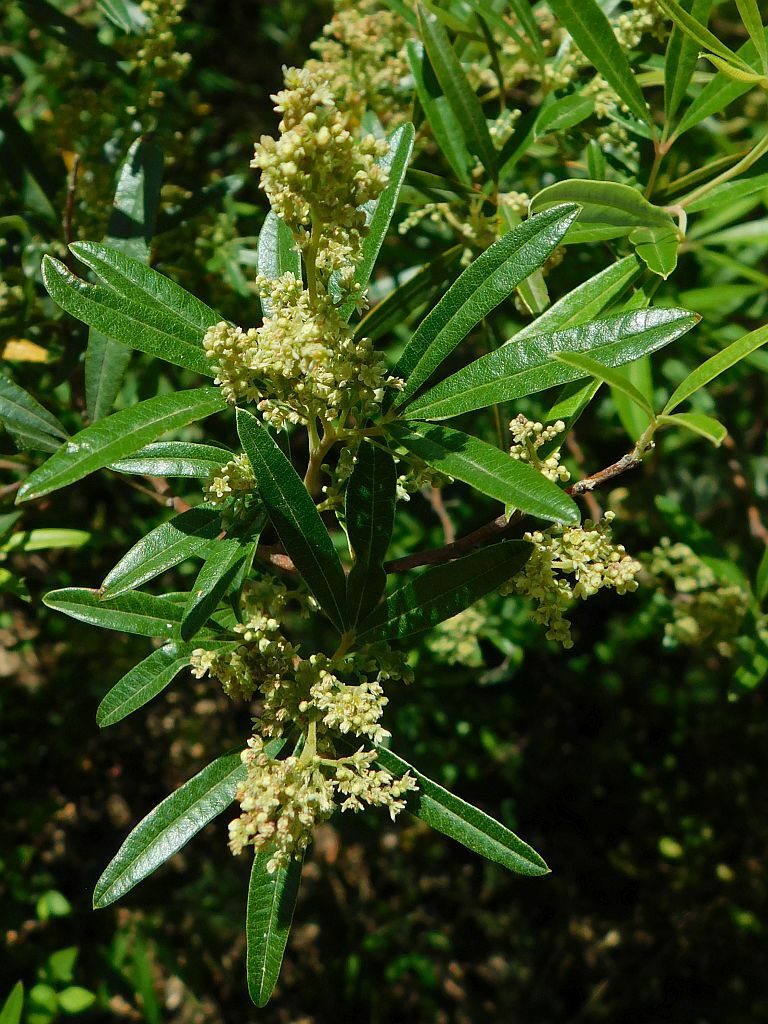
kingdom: Plantae
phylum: Tracheophyta
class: Magnoliopsida
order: Sapindales
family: Anacardiaceae
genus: Searsia
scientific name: Searsia angustifolia
